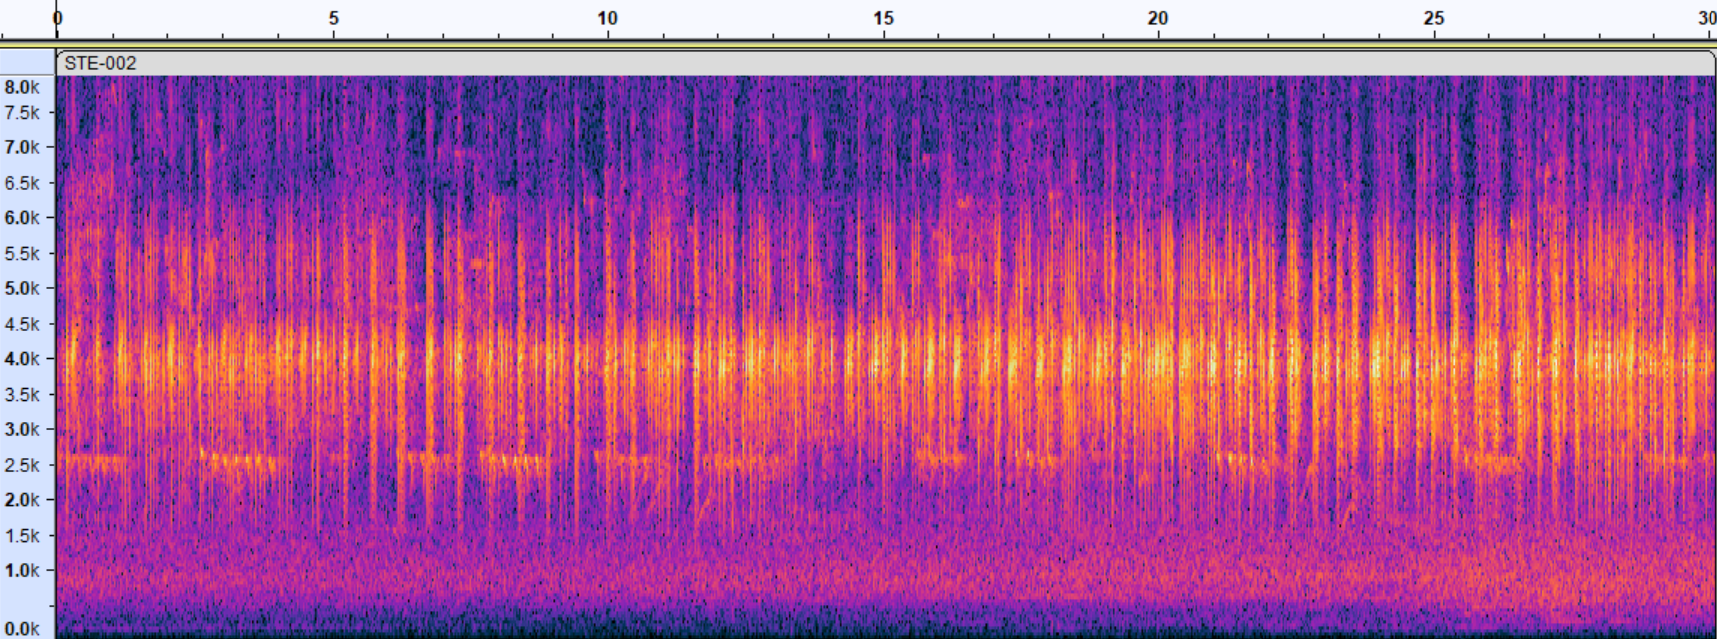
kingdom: Animalia
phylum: Chordata
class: Amphibia
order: Anura
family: Hylidae
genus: Acris
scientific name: Acris crepitans
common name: Northern cricket frog
